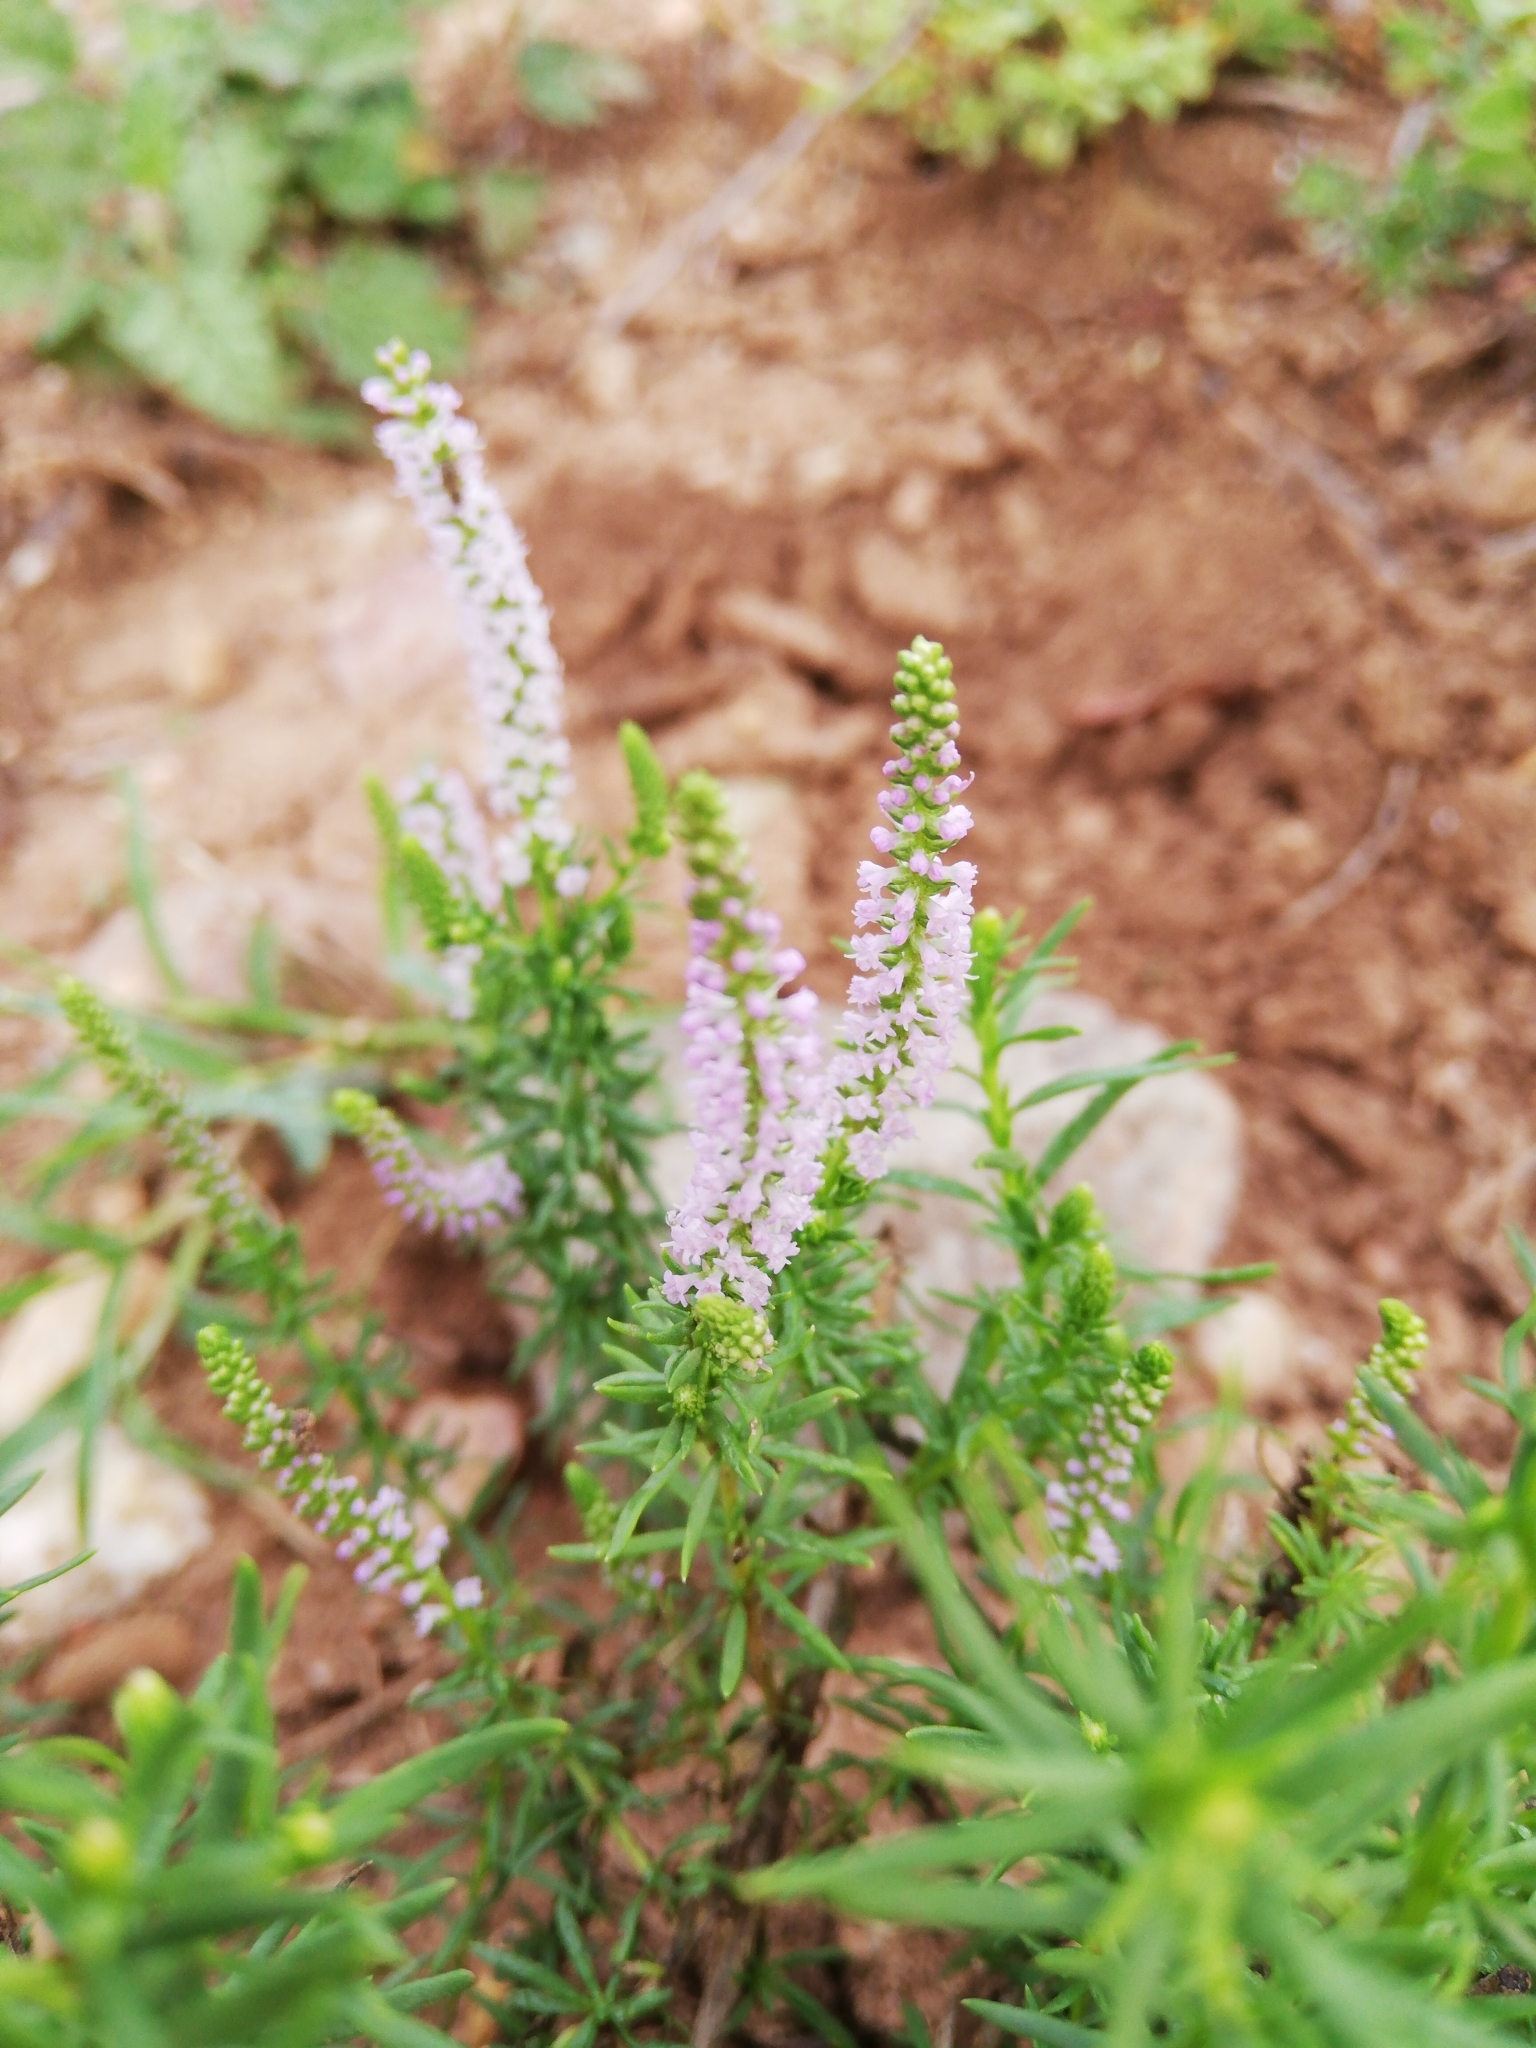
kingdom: Plantae
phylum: Tracheophyta
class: Magnoliopsida
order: Lamiales
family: Scrophulariaceae
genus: Selago
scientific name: Selago geniculata
